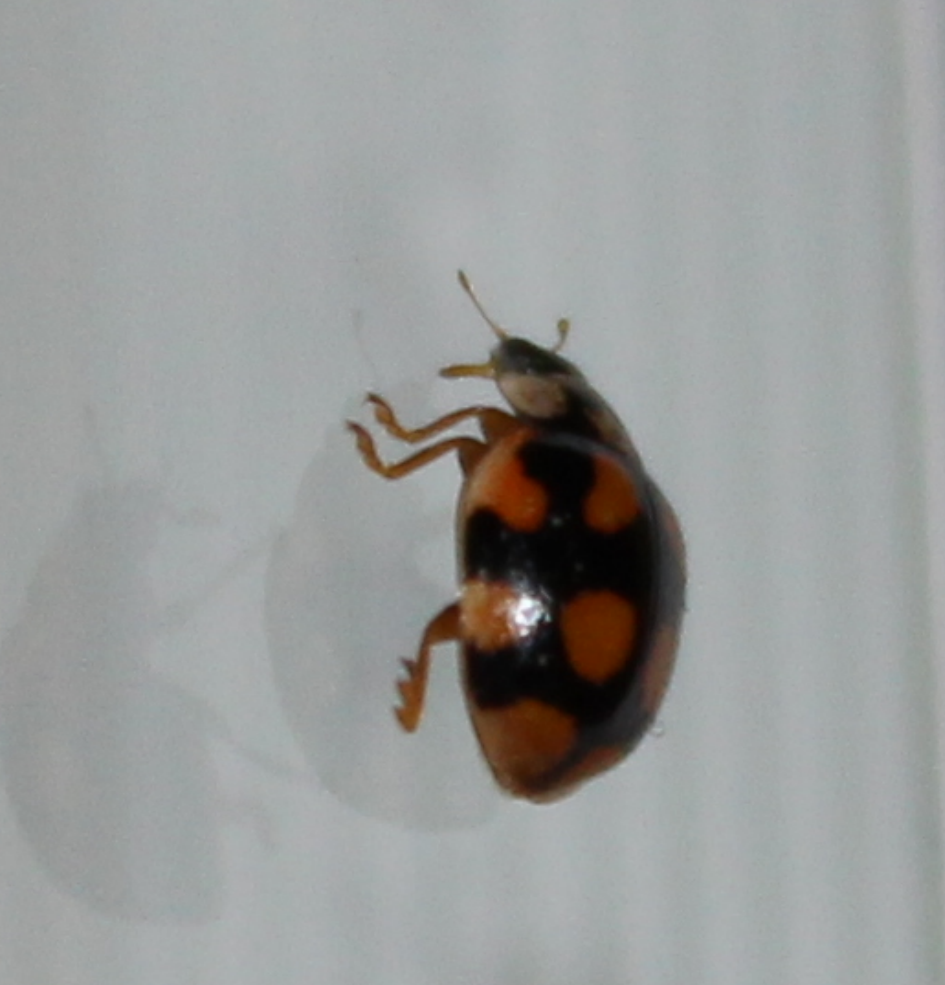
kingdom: Animalia
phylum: Arthropoda
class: Insecta
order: Coleoptera
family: Coccinellidae
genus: Adalia
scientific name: Adalia decempunctata
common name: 10-spot ladybird
